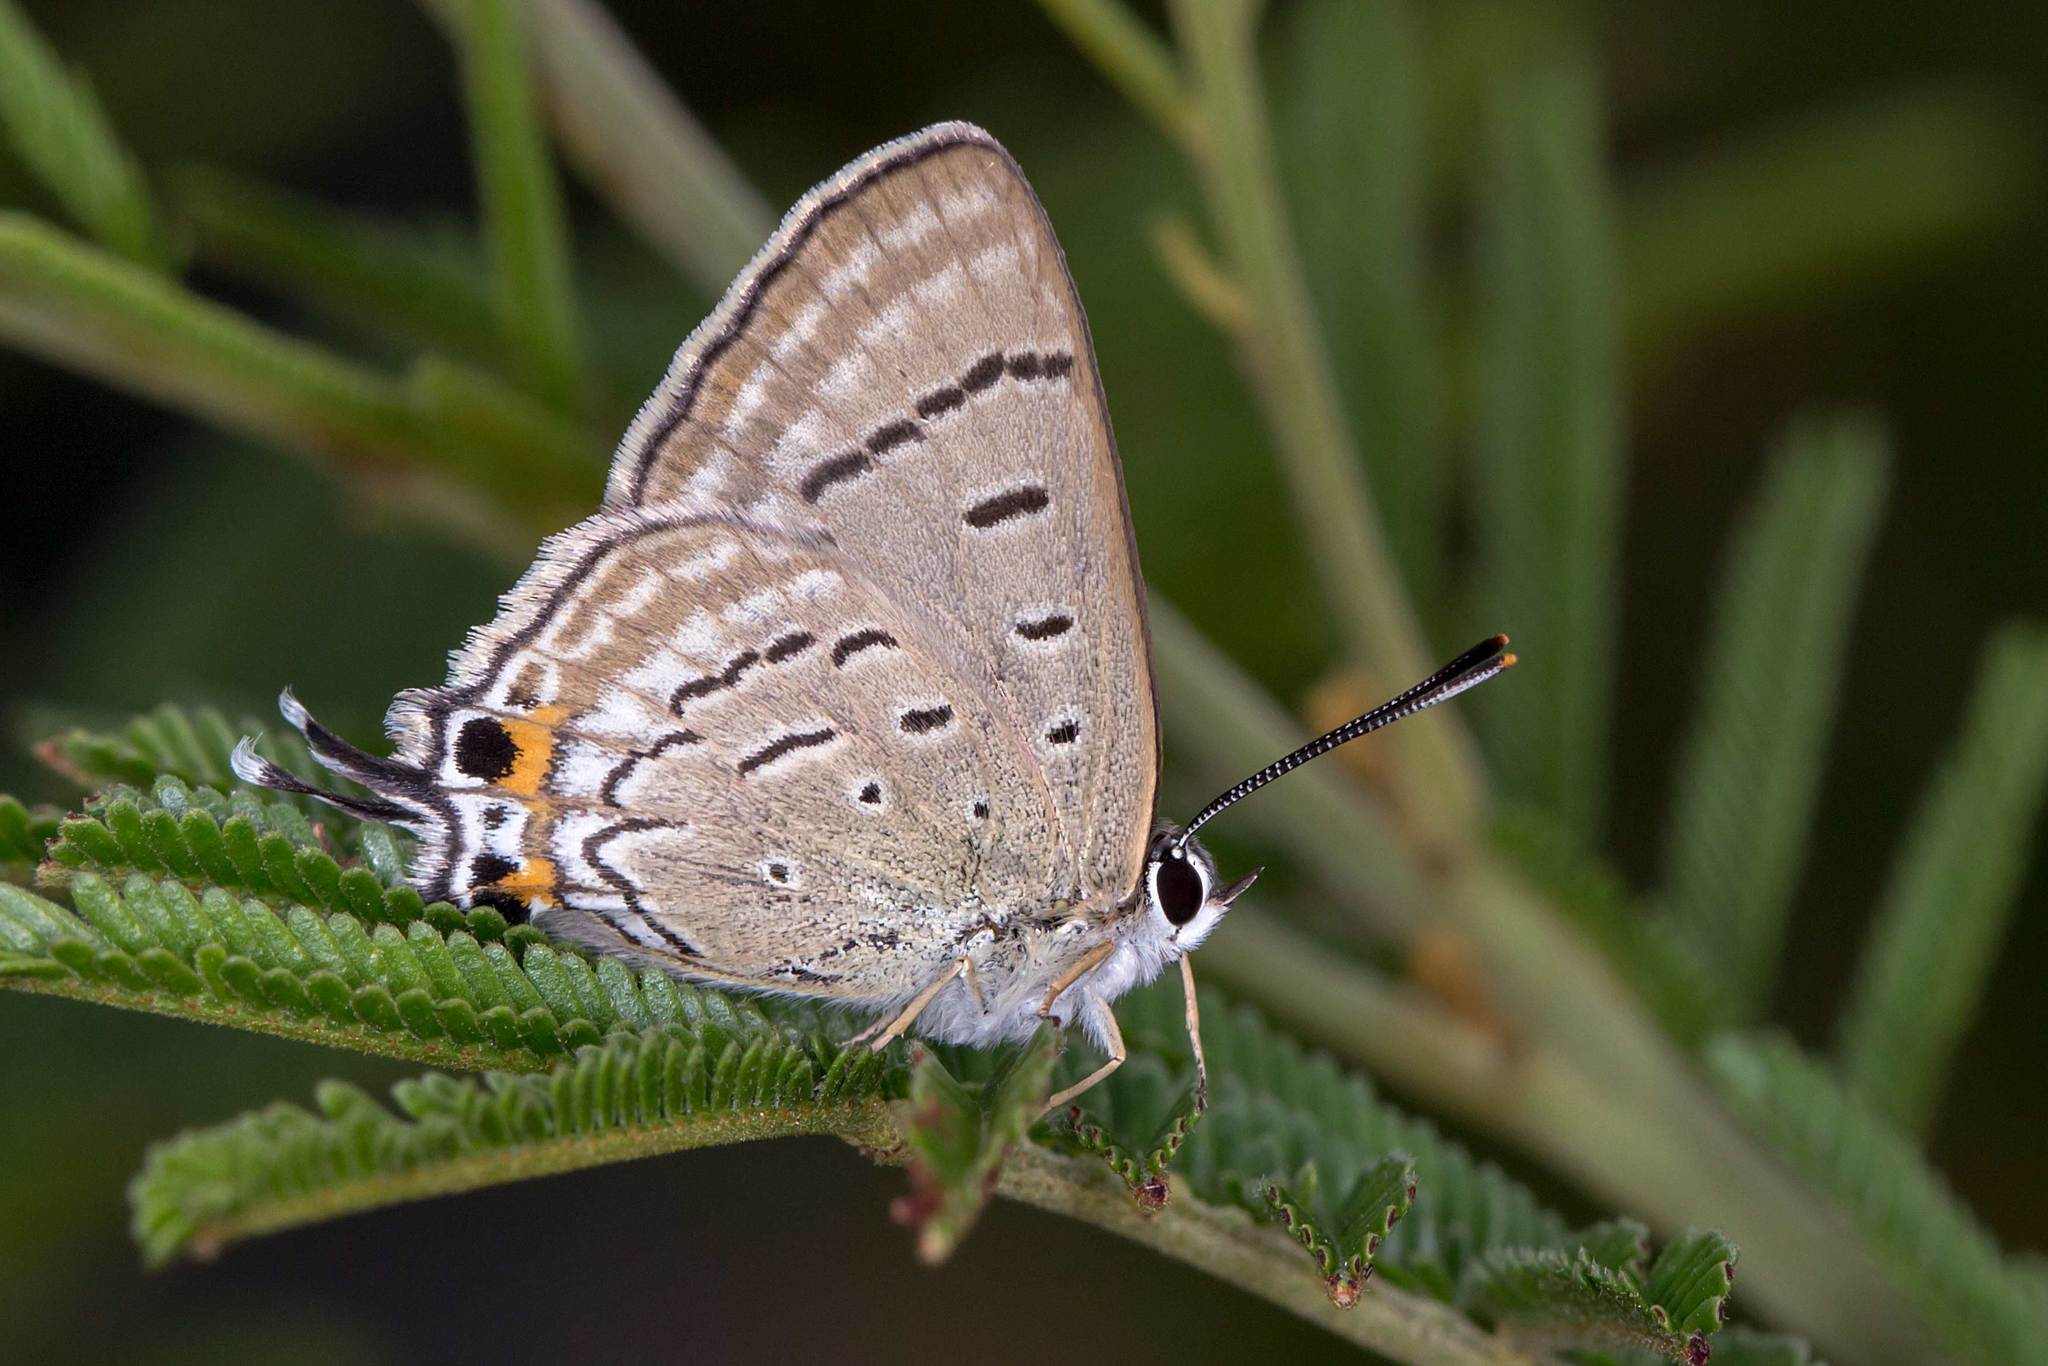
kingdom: Animalia
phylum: Arthropoda
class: Insecta
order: Lepidoptera
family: Lycaenidae
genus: Jalmenus
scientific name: Jalmenus ictinus
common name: Stencilled hairstreak
